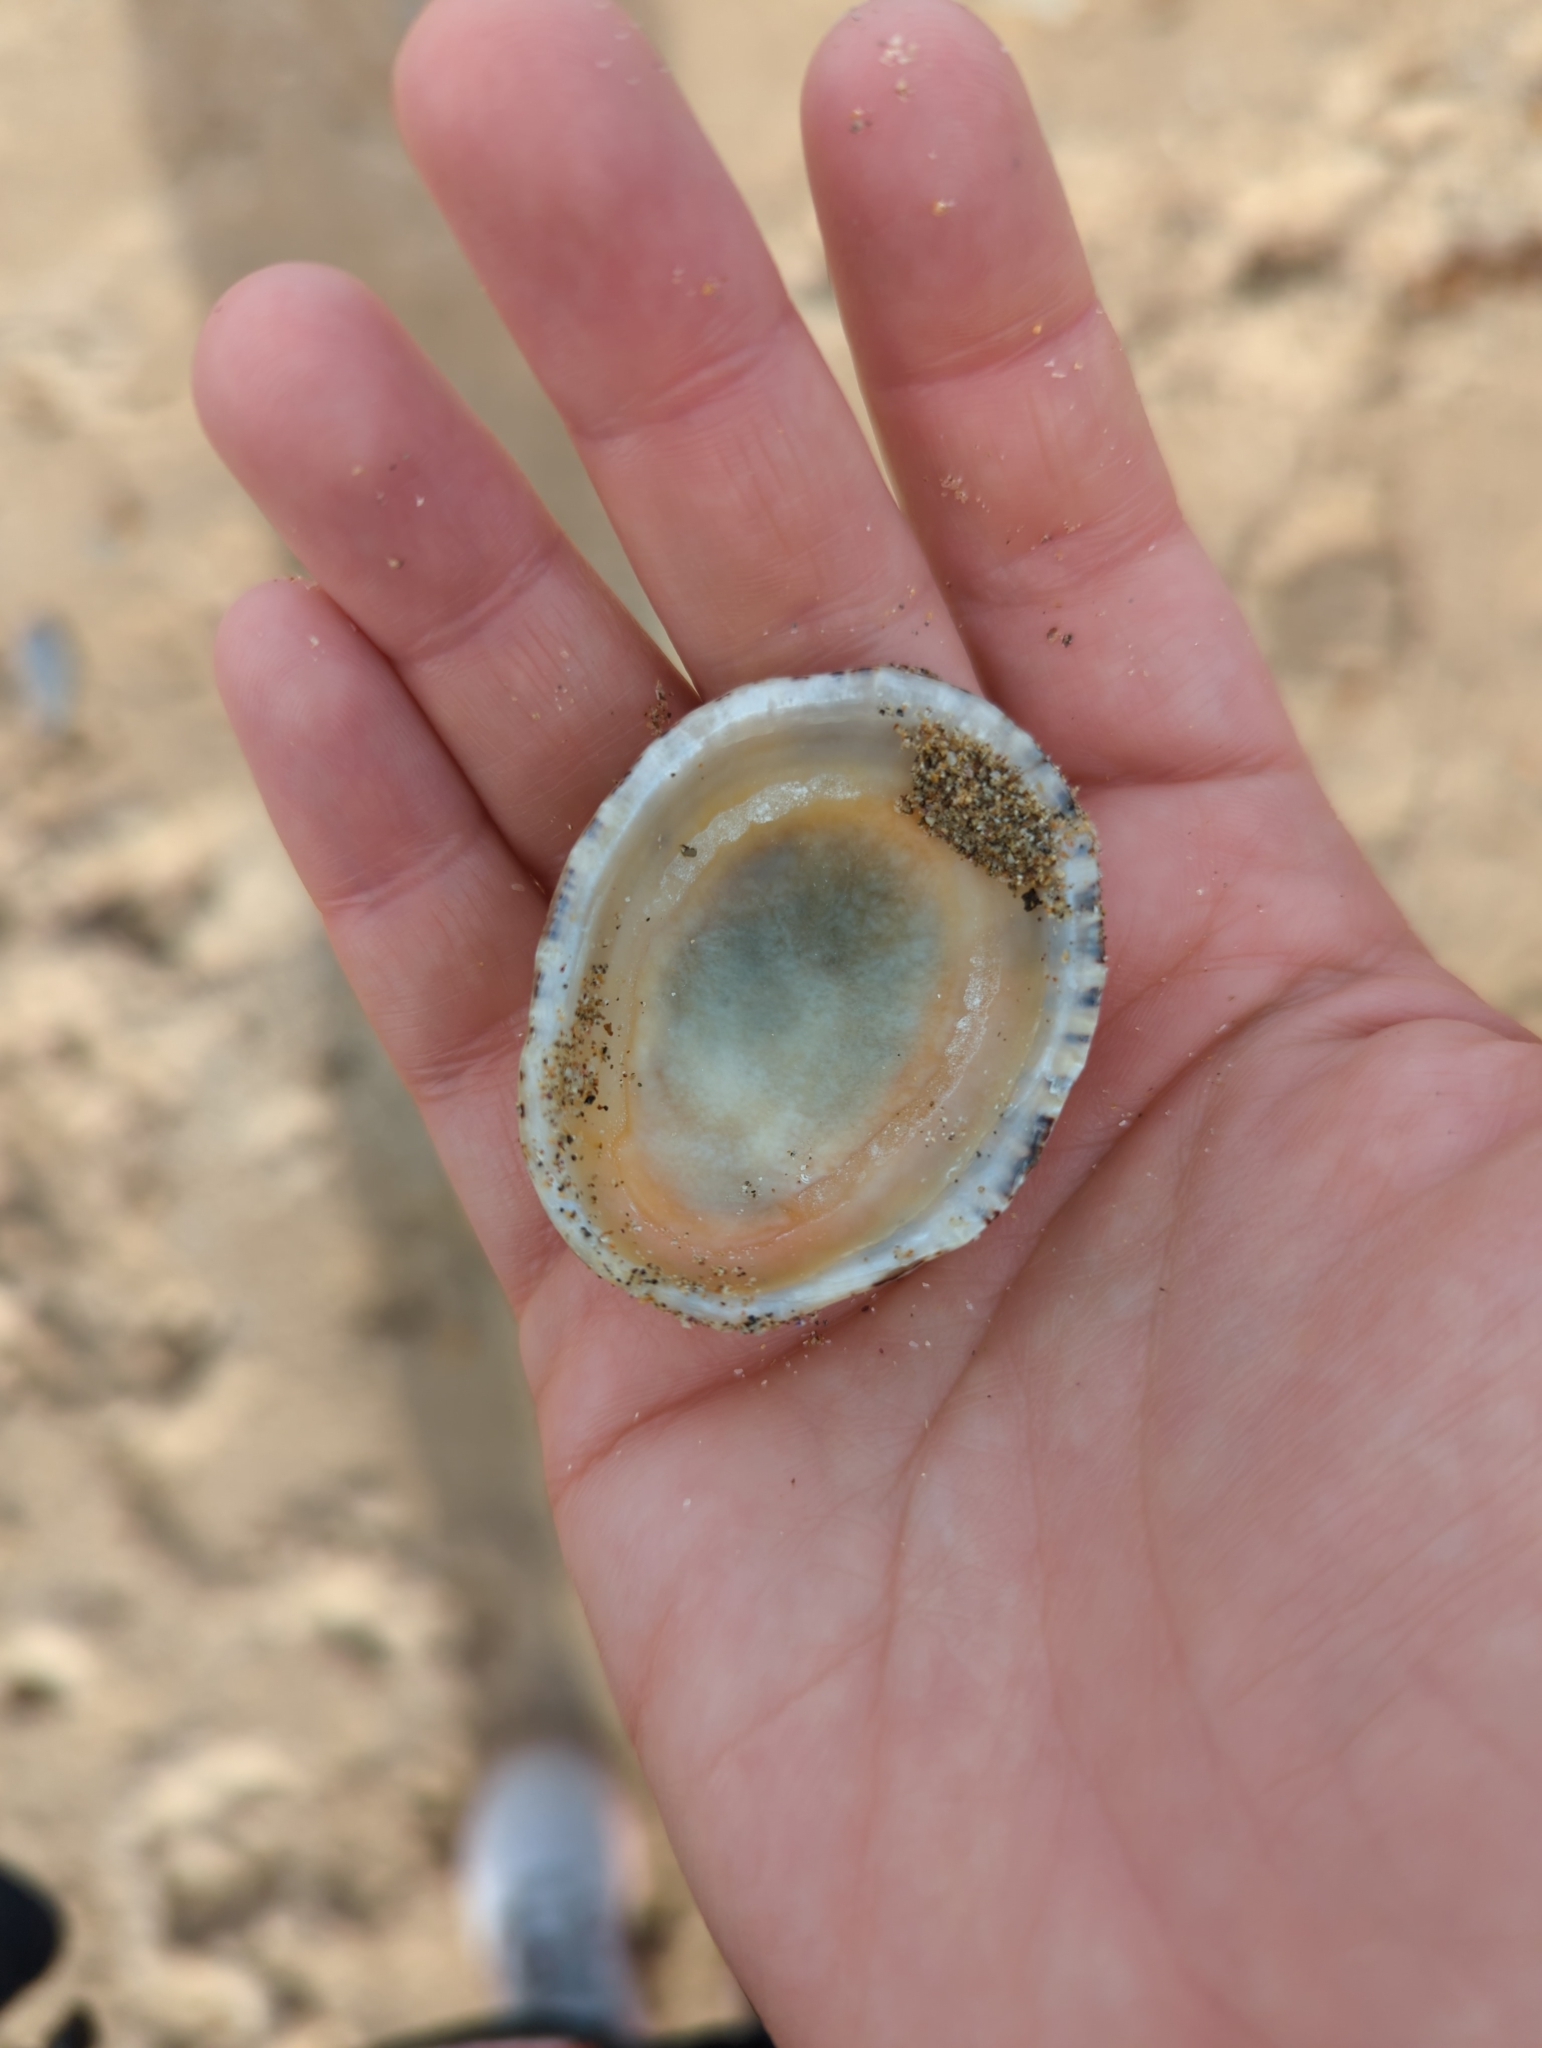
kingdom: Animalia
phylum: Mollusca
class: Gastropoda
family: Nacellidae
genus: Cellana
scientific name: Cellana tramoserica
